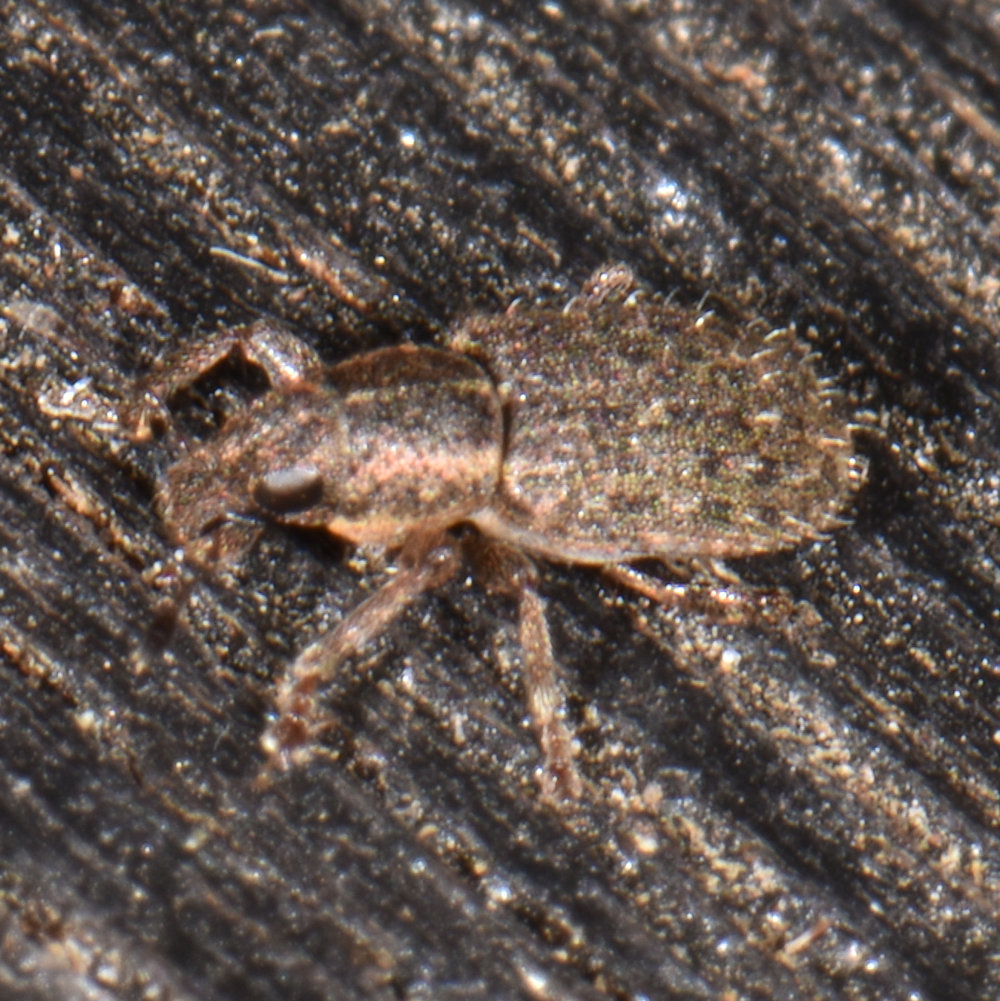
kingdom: Animalia
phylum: Arthropoda
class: Insecta
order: Coleoptera
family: Curculionidae
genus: Sitona
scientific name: Sitona hispidulus
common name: Clover weevil
